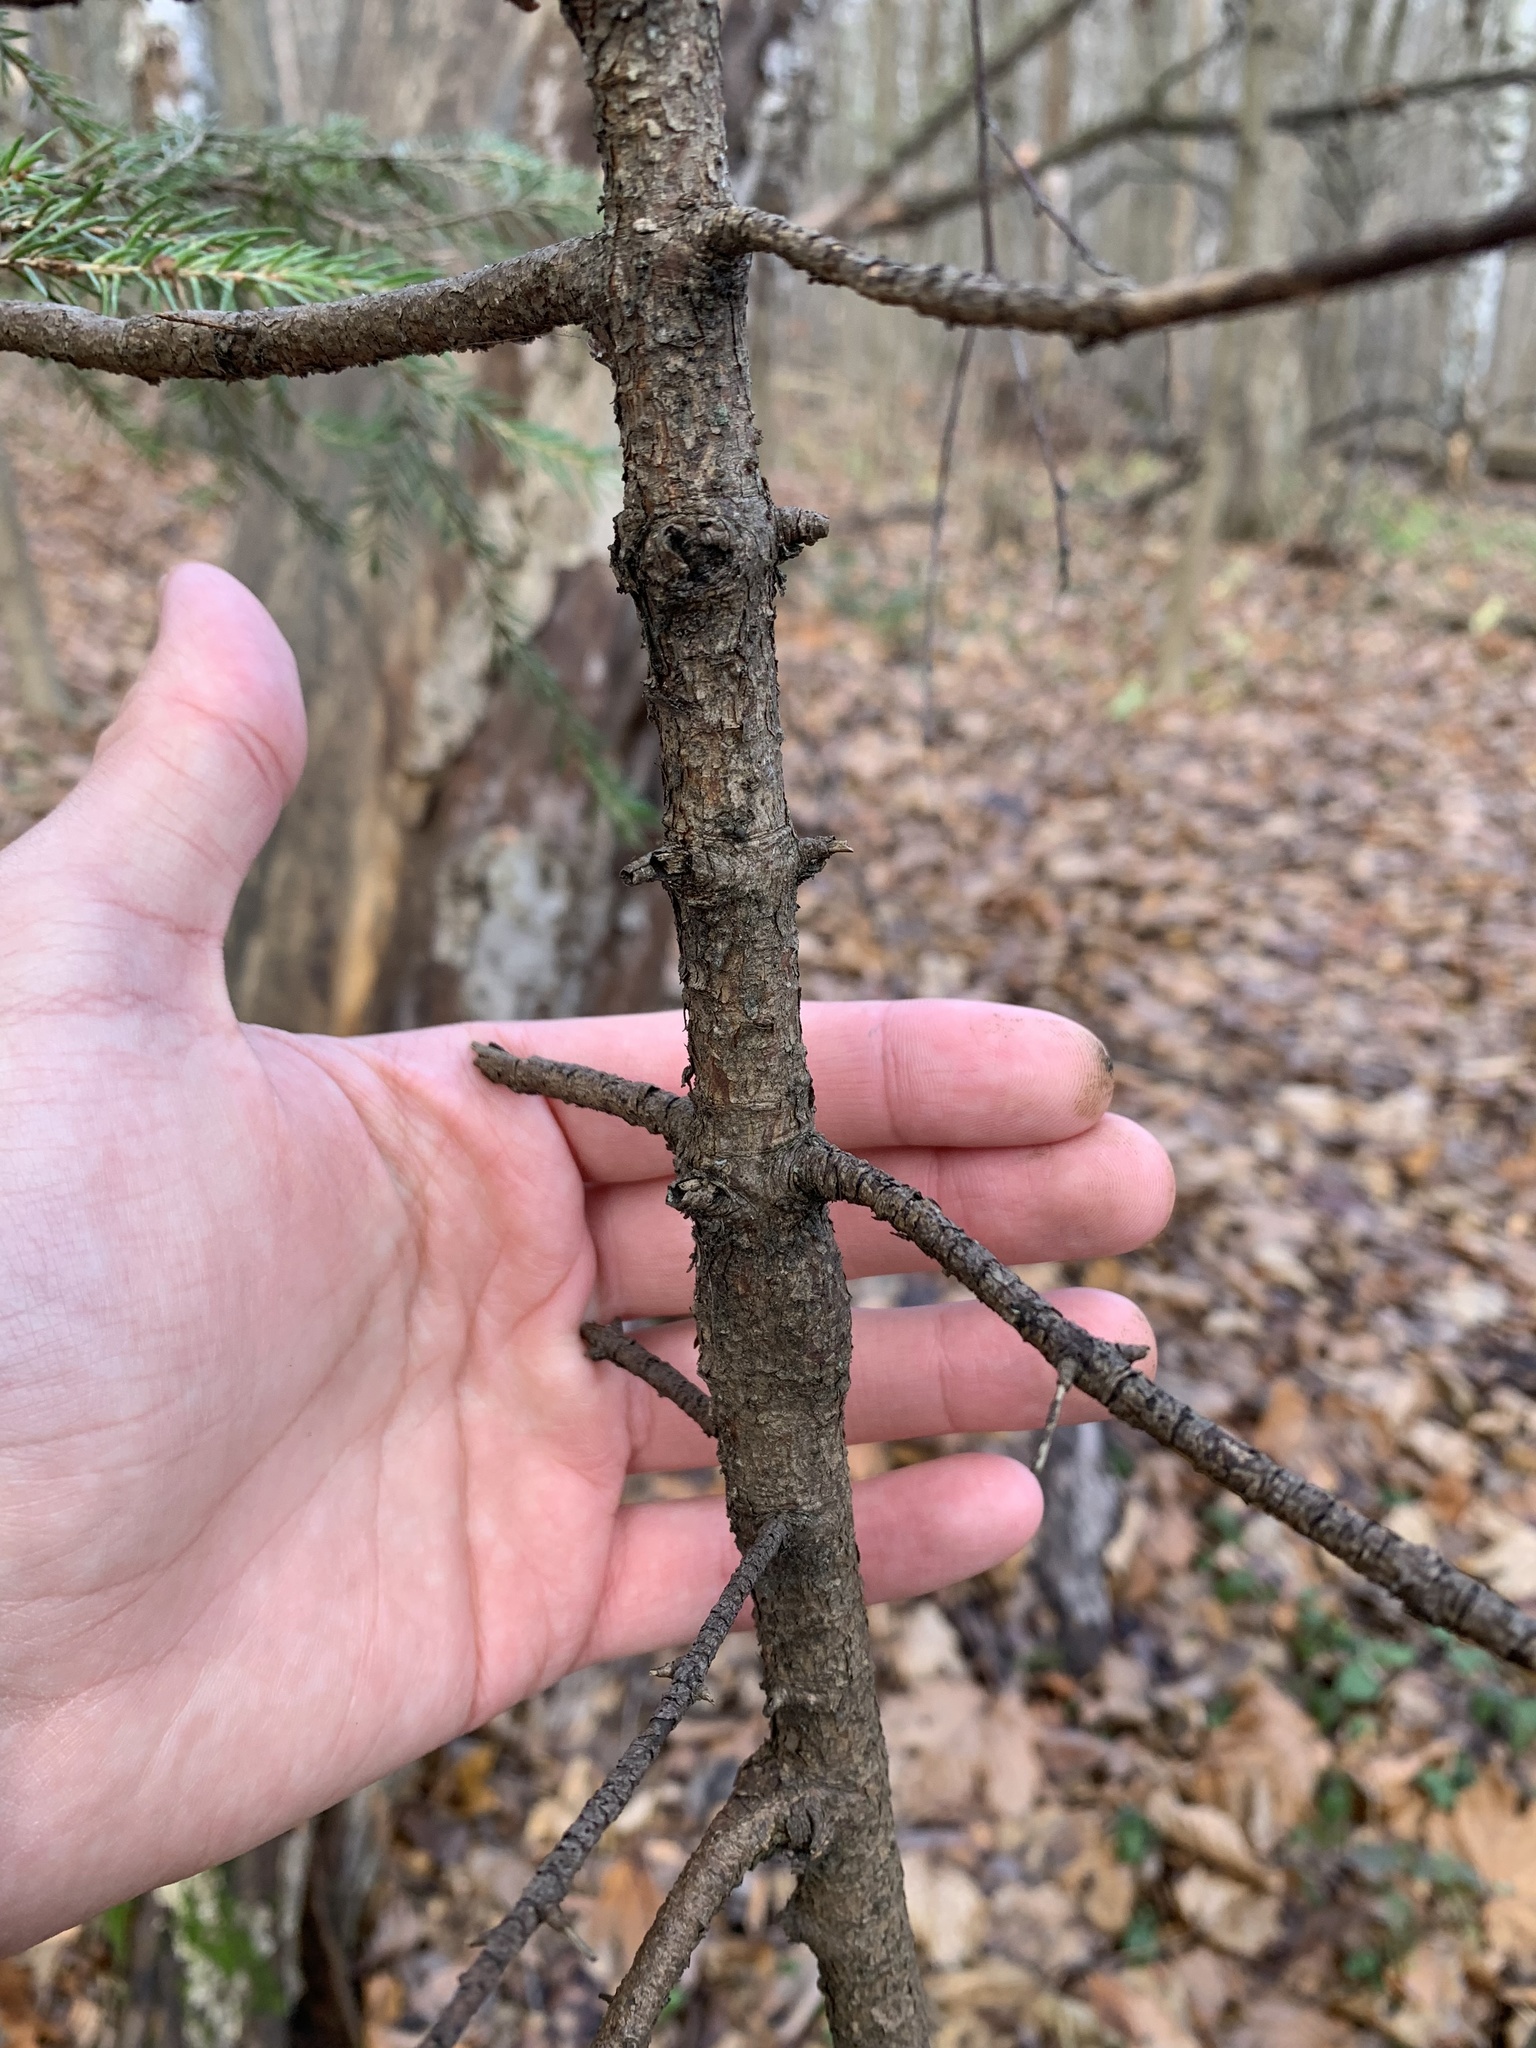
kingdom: Plantae
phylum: Tracheophyta
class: Pinopsida
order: Pinales
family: Pinaceae
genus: Picea
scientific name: Picea abies
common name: Norway spruce
